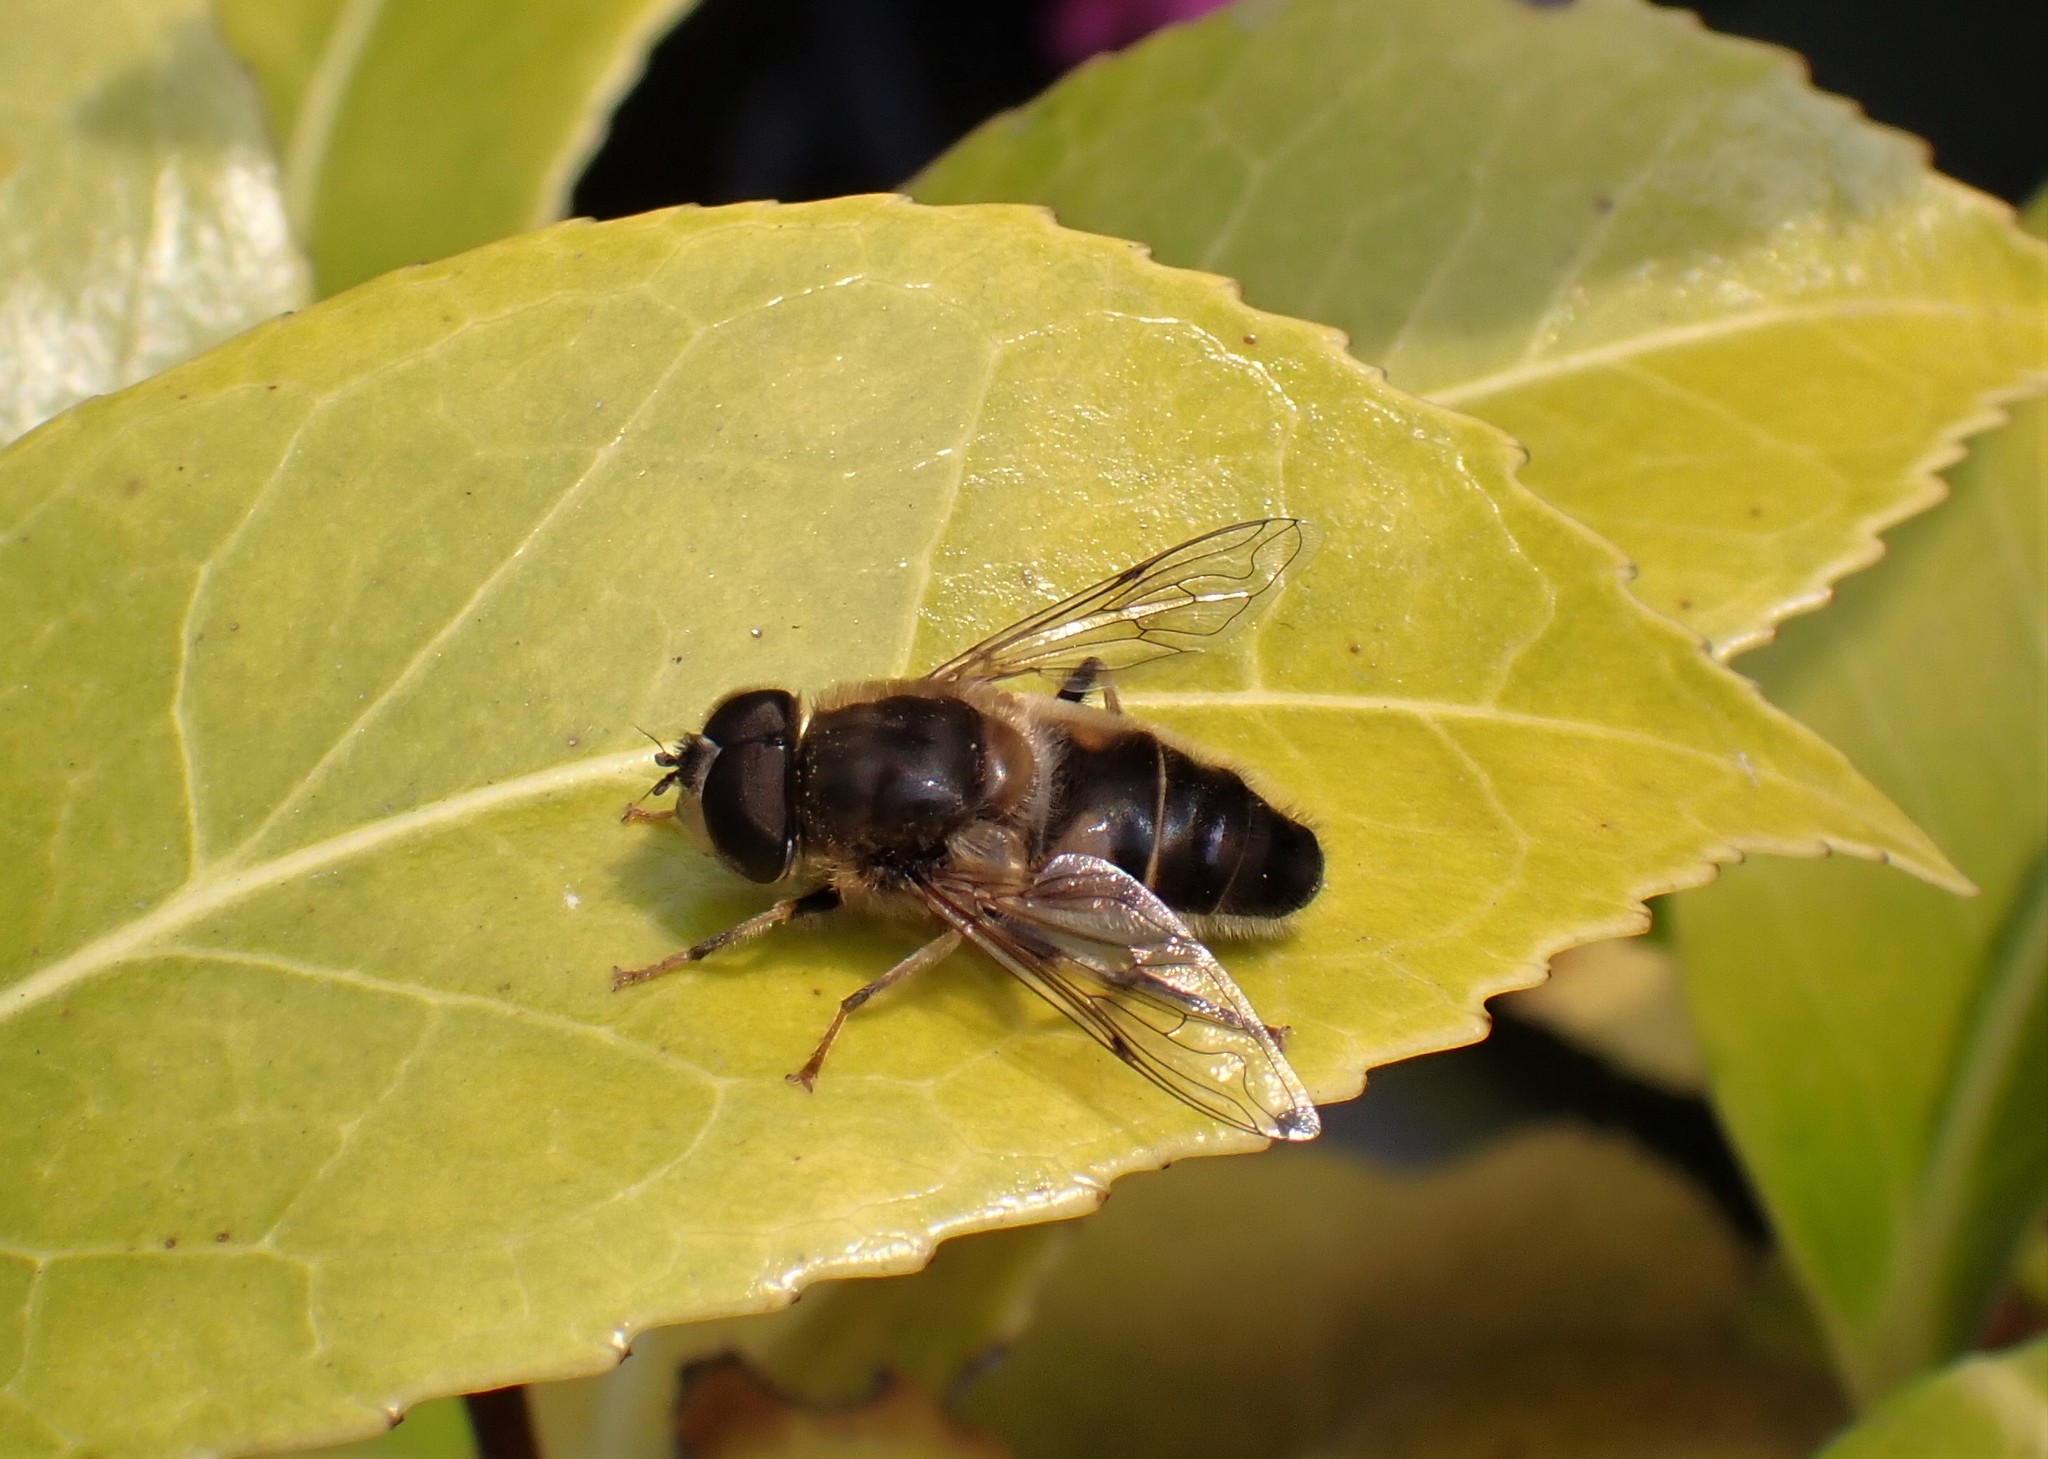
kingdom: Animalia
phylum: Arthropoda
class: Insecta
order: Diptera
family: Syrphidae
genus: Eristalis
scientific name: Eristalis pertinax
